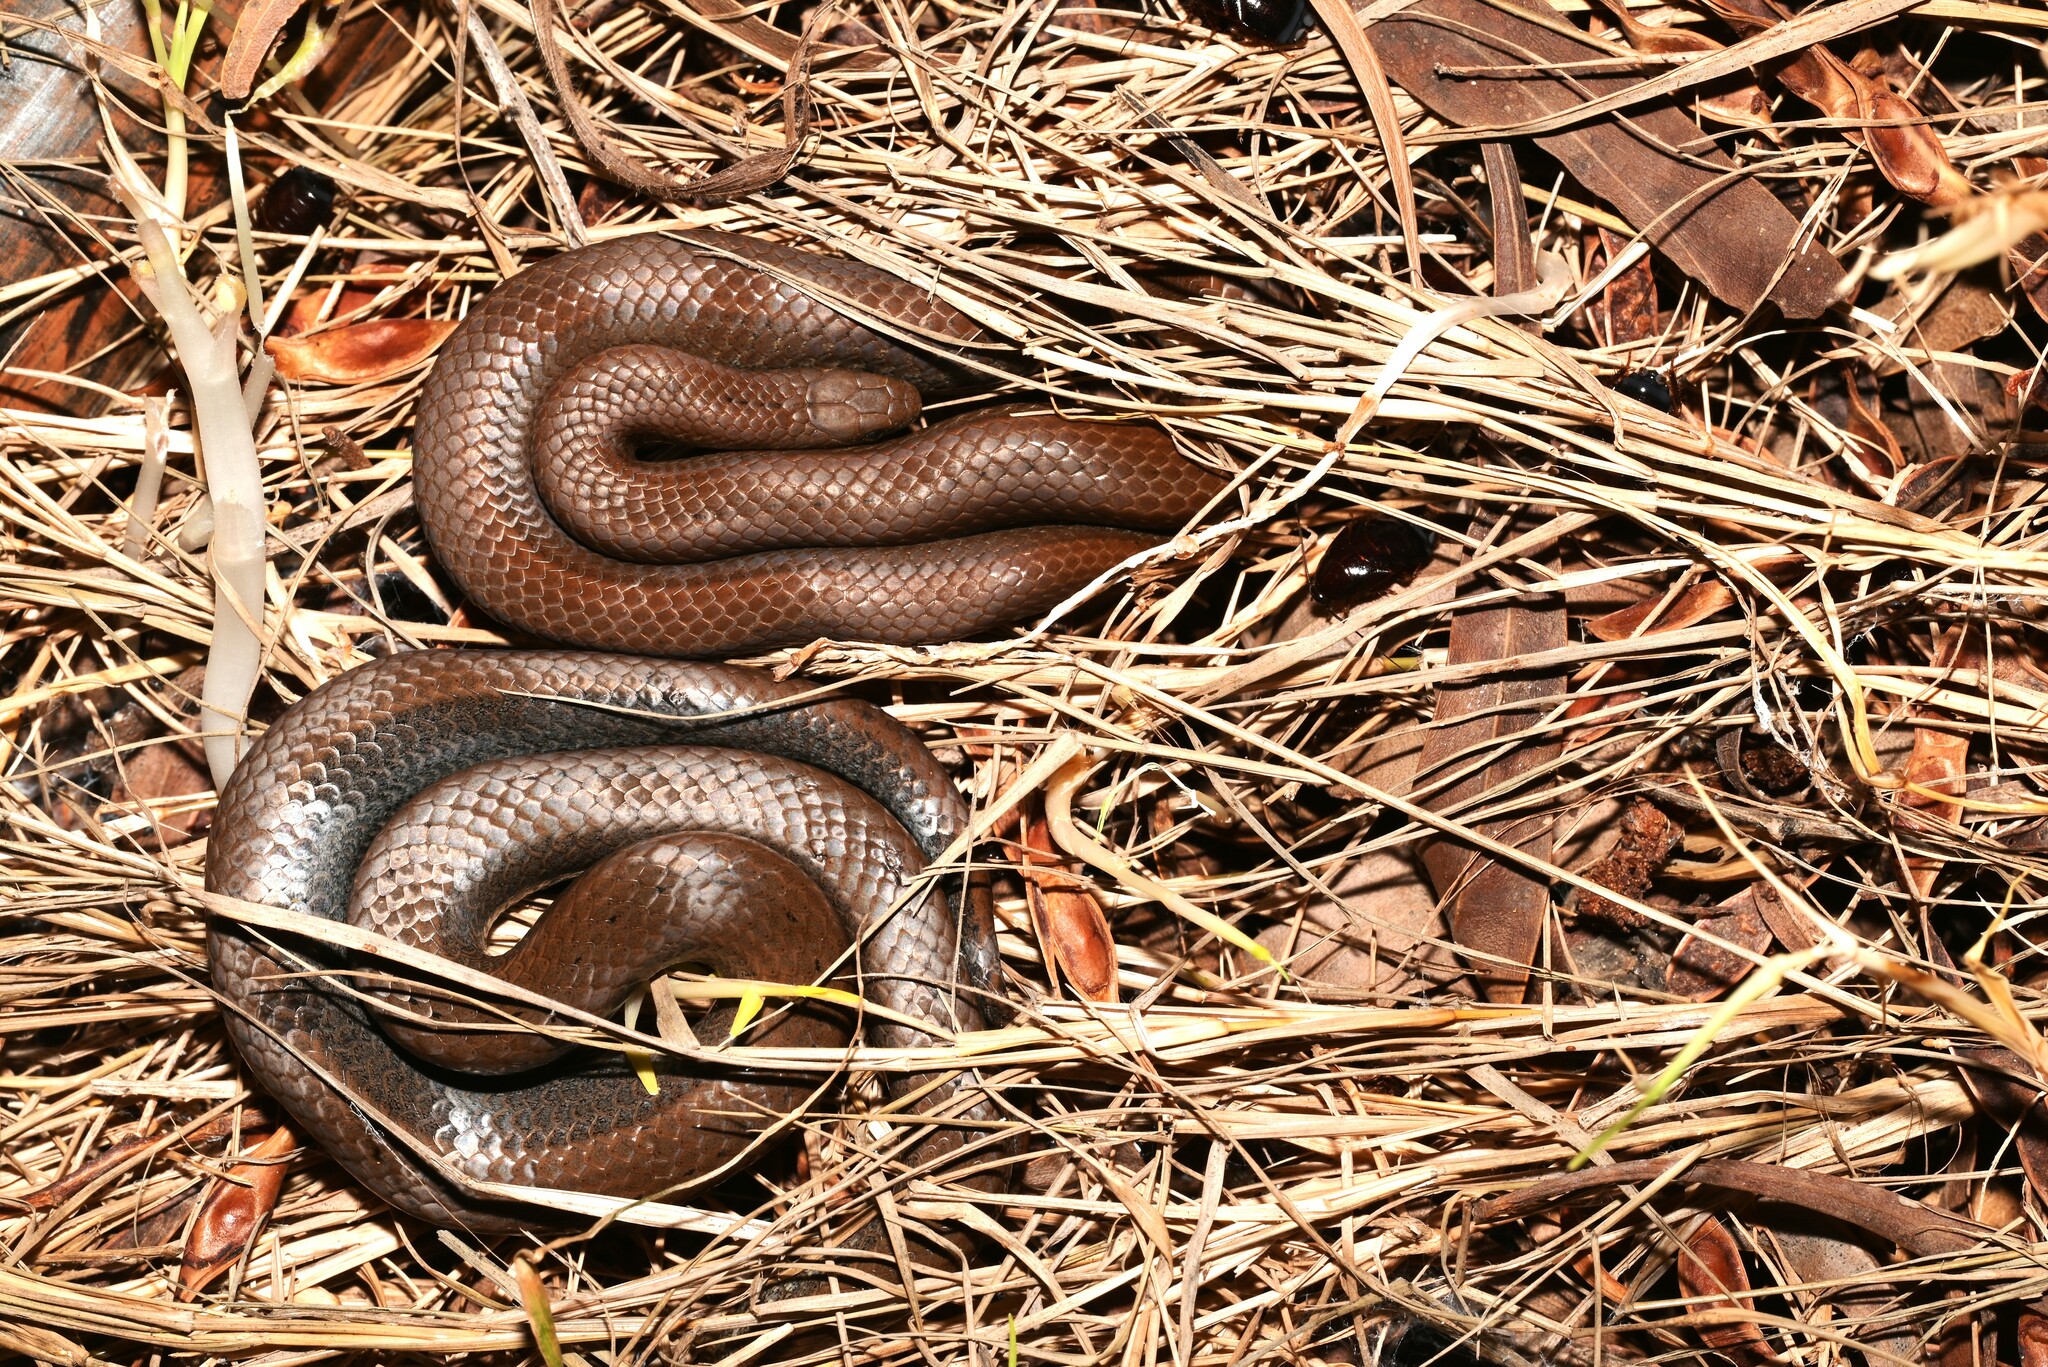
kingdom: Animalia
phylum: Chordata
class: Squamata
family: Pseudoxyrhophiidae
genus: Duberria
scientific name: Duberria lutrix
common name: Common slug eater
